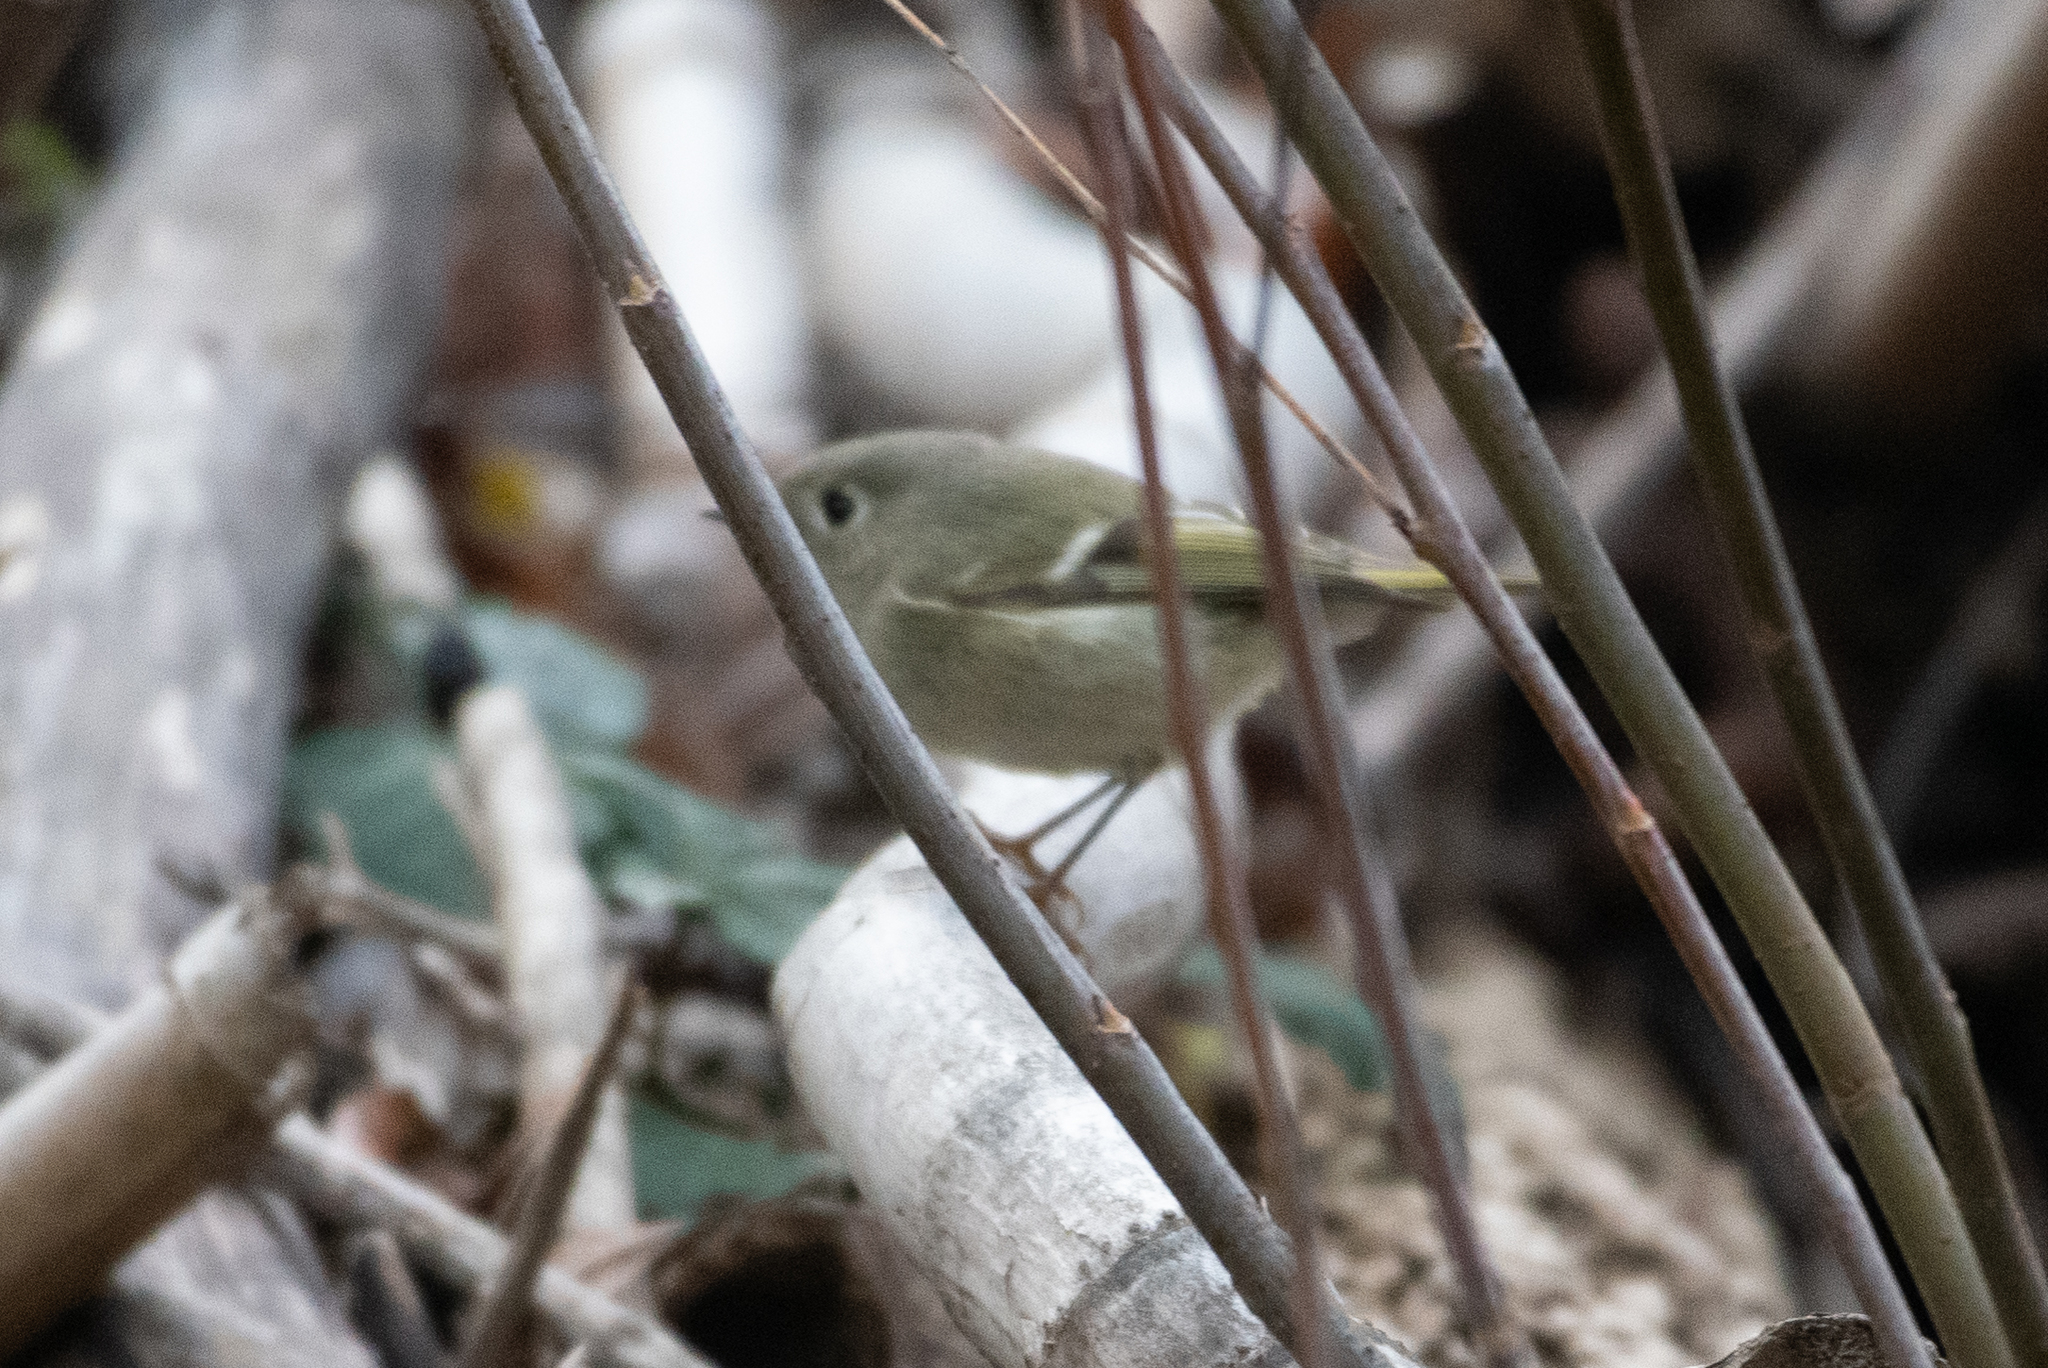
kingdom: Animalia
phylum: Chordata
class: Aves
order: Passeriformes
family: Regulidae
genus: Regulus
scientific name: Regulus calendula
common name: Ruby-crowned kinglet
